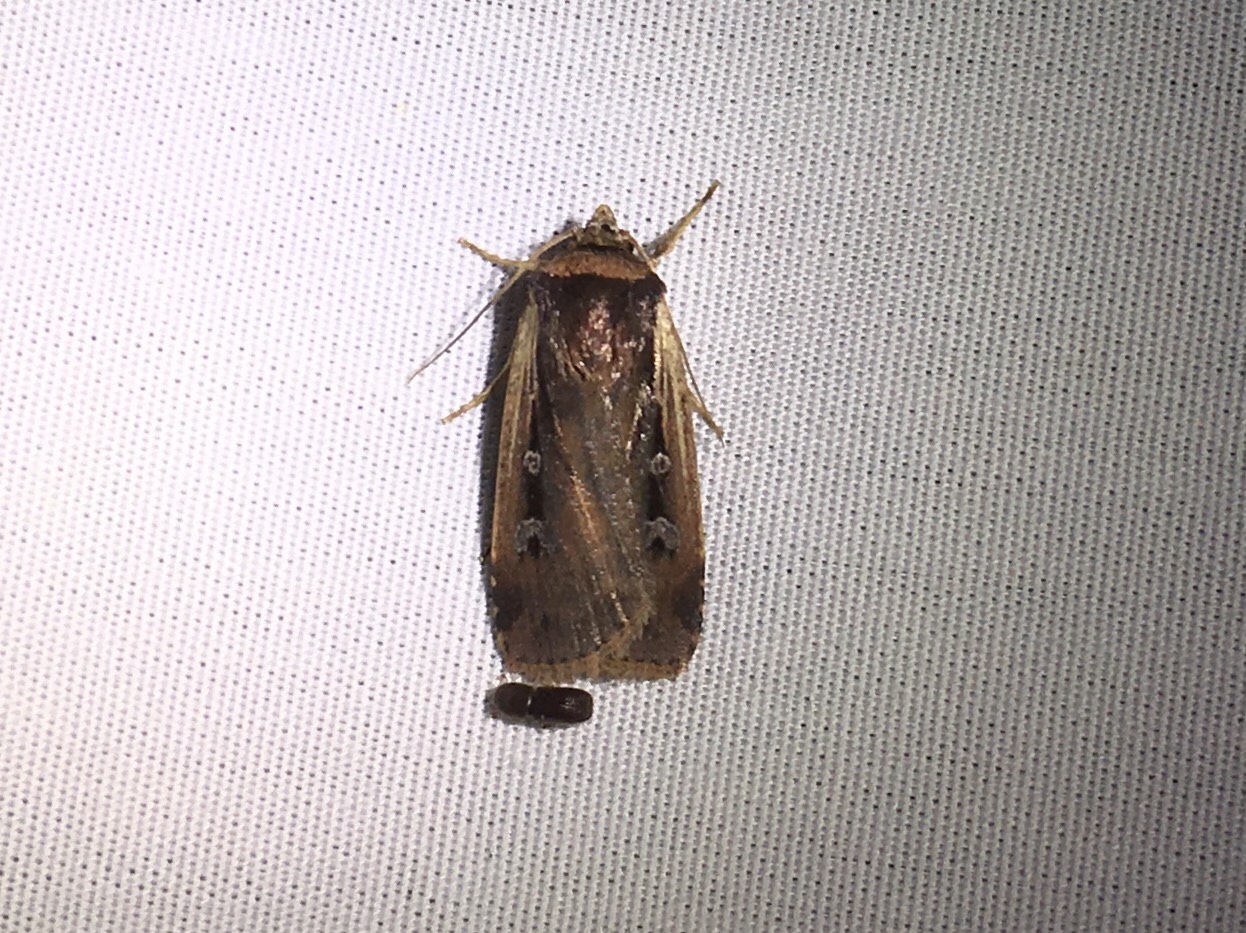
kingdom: Animalia
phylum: Arthropoda
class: Insecta
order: Lepidoptera
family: Noctuidae
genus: Ochropleura
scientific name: Ochropleura implecta
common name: Flame-shouldered dart
